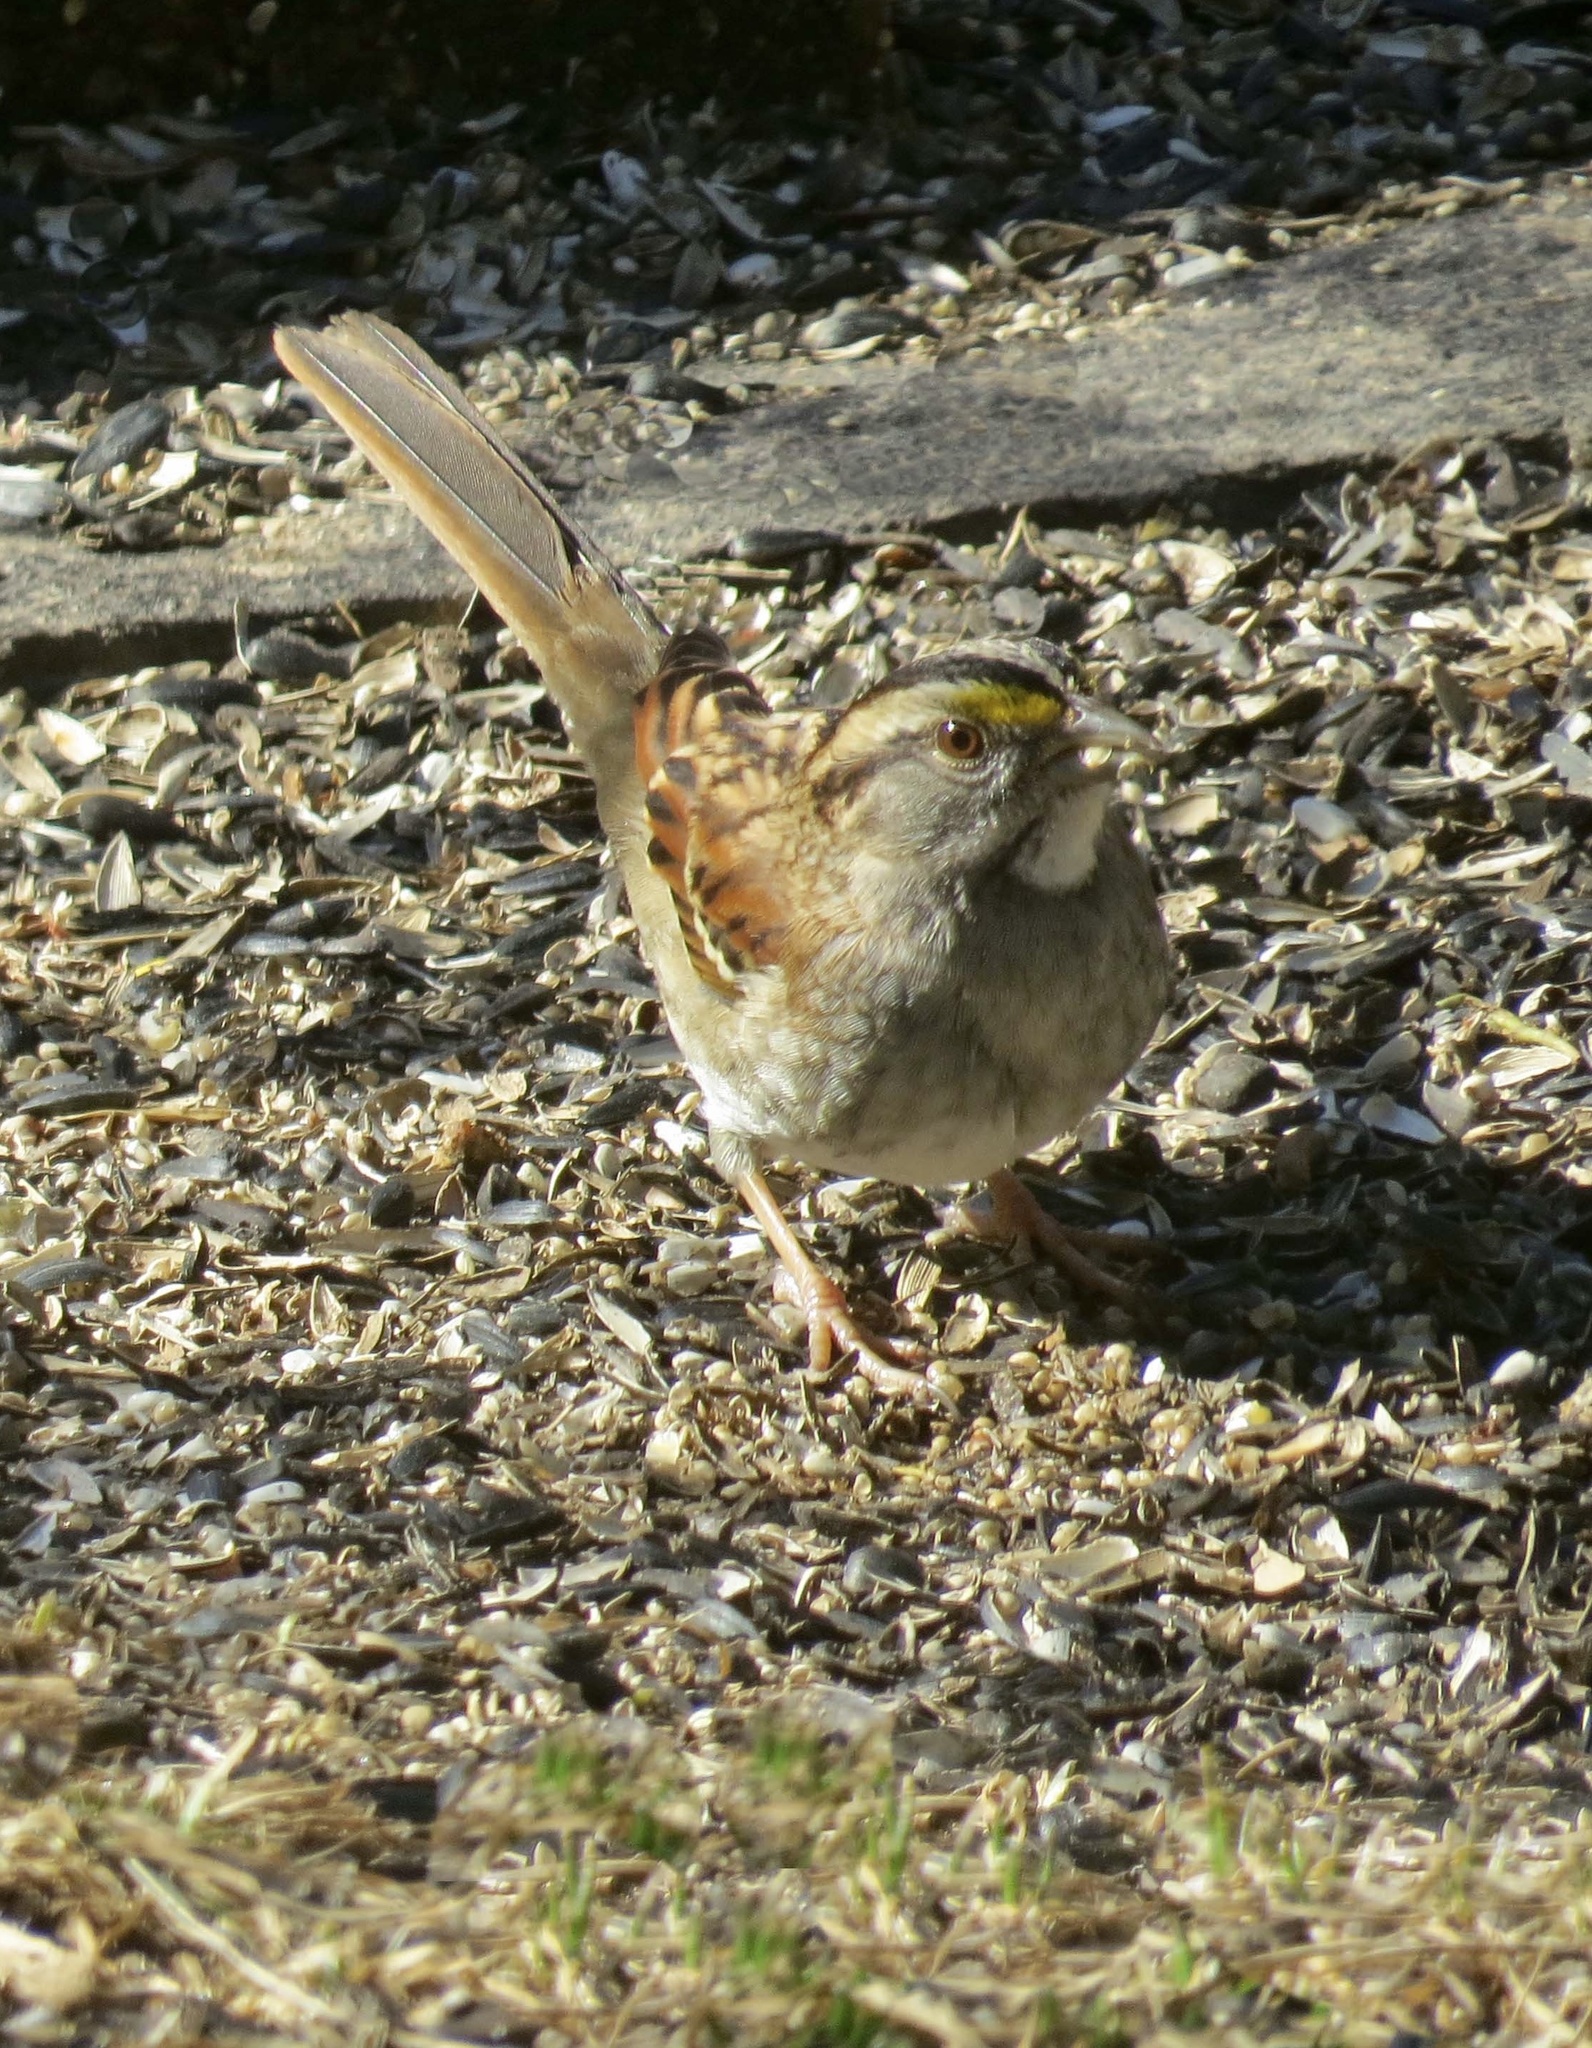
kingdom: Animalia
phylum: Chordata
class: Aves
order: Passeriformes
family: Passerellidae
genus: Zonotrichia
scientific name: Zonotrichia albicollis
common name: White-throated sparrow
